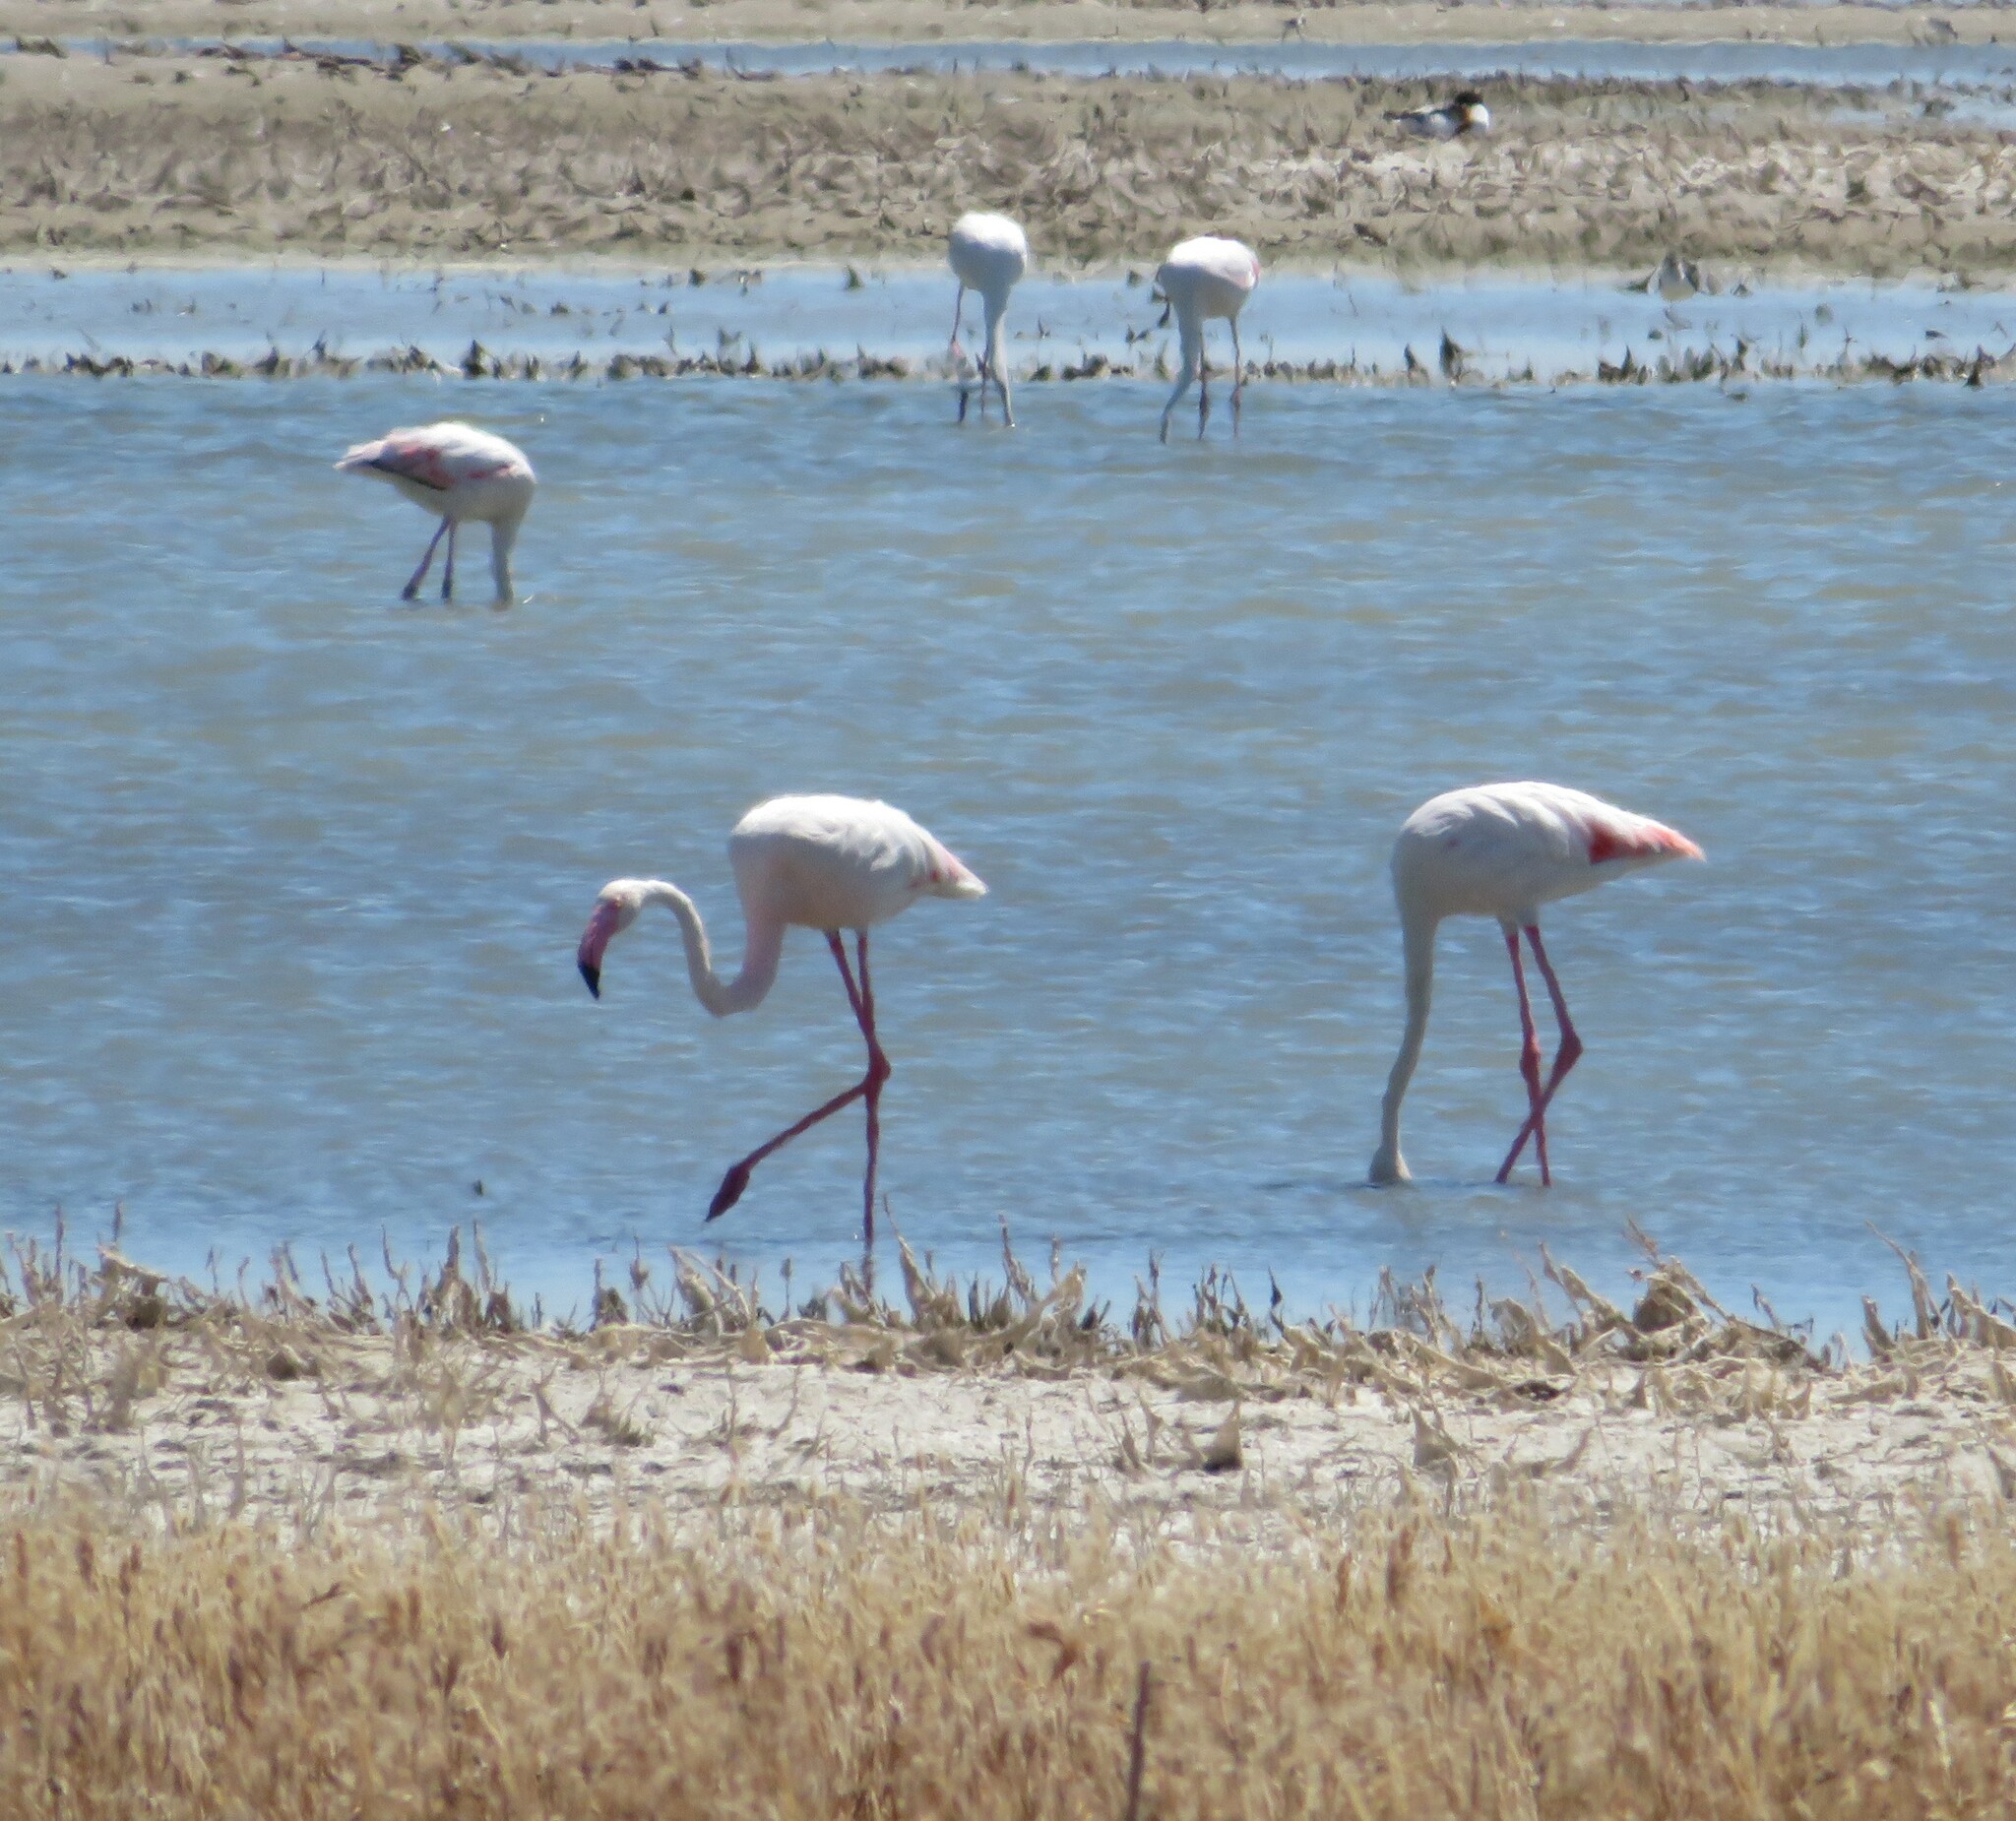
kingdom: Animalia
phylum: Chordata
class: Aves
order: Phoenicopteriformes
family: Phoenicopteridae
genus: Phoenicopterus
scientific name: Phoenicopterus roseus
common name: Greater flamingo
